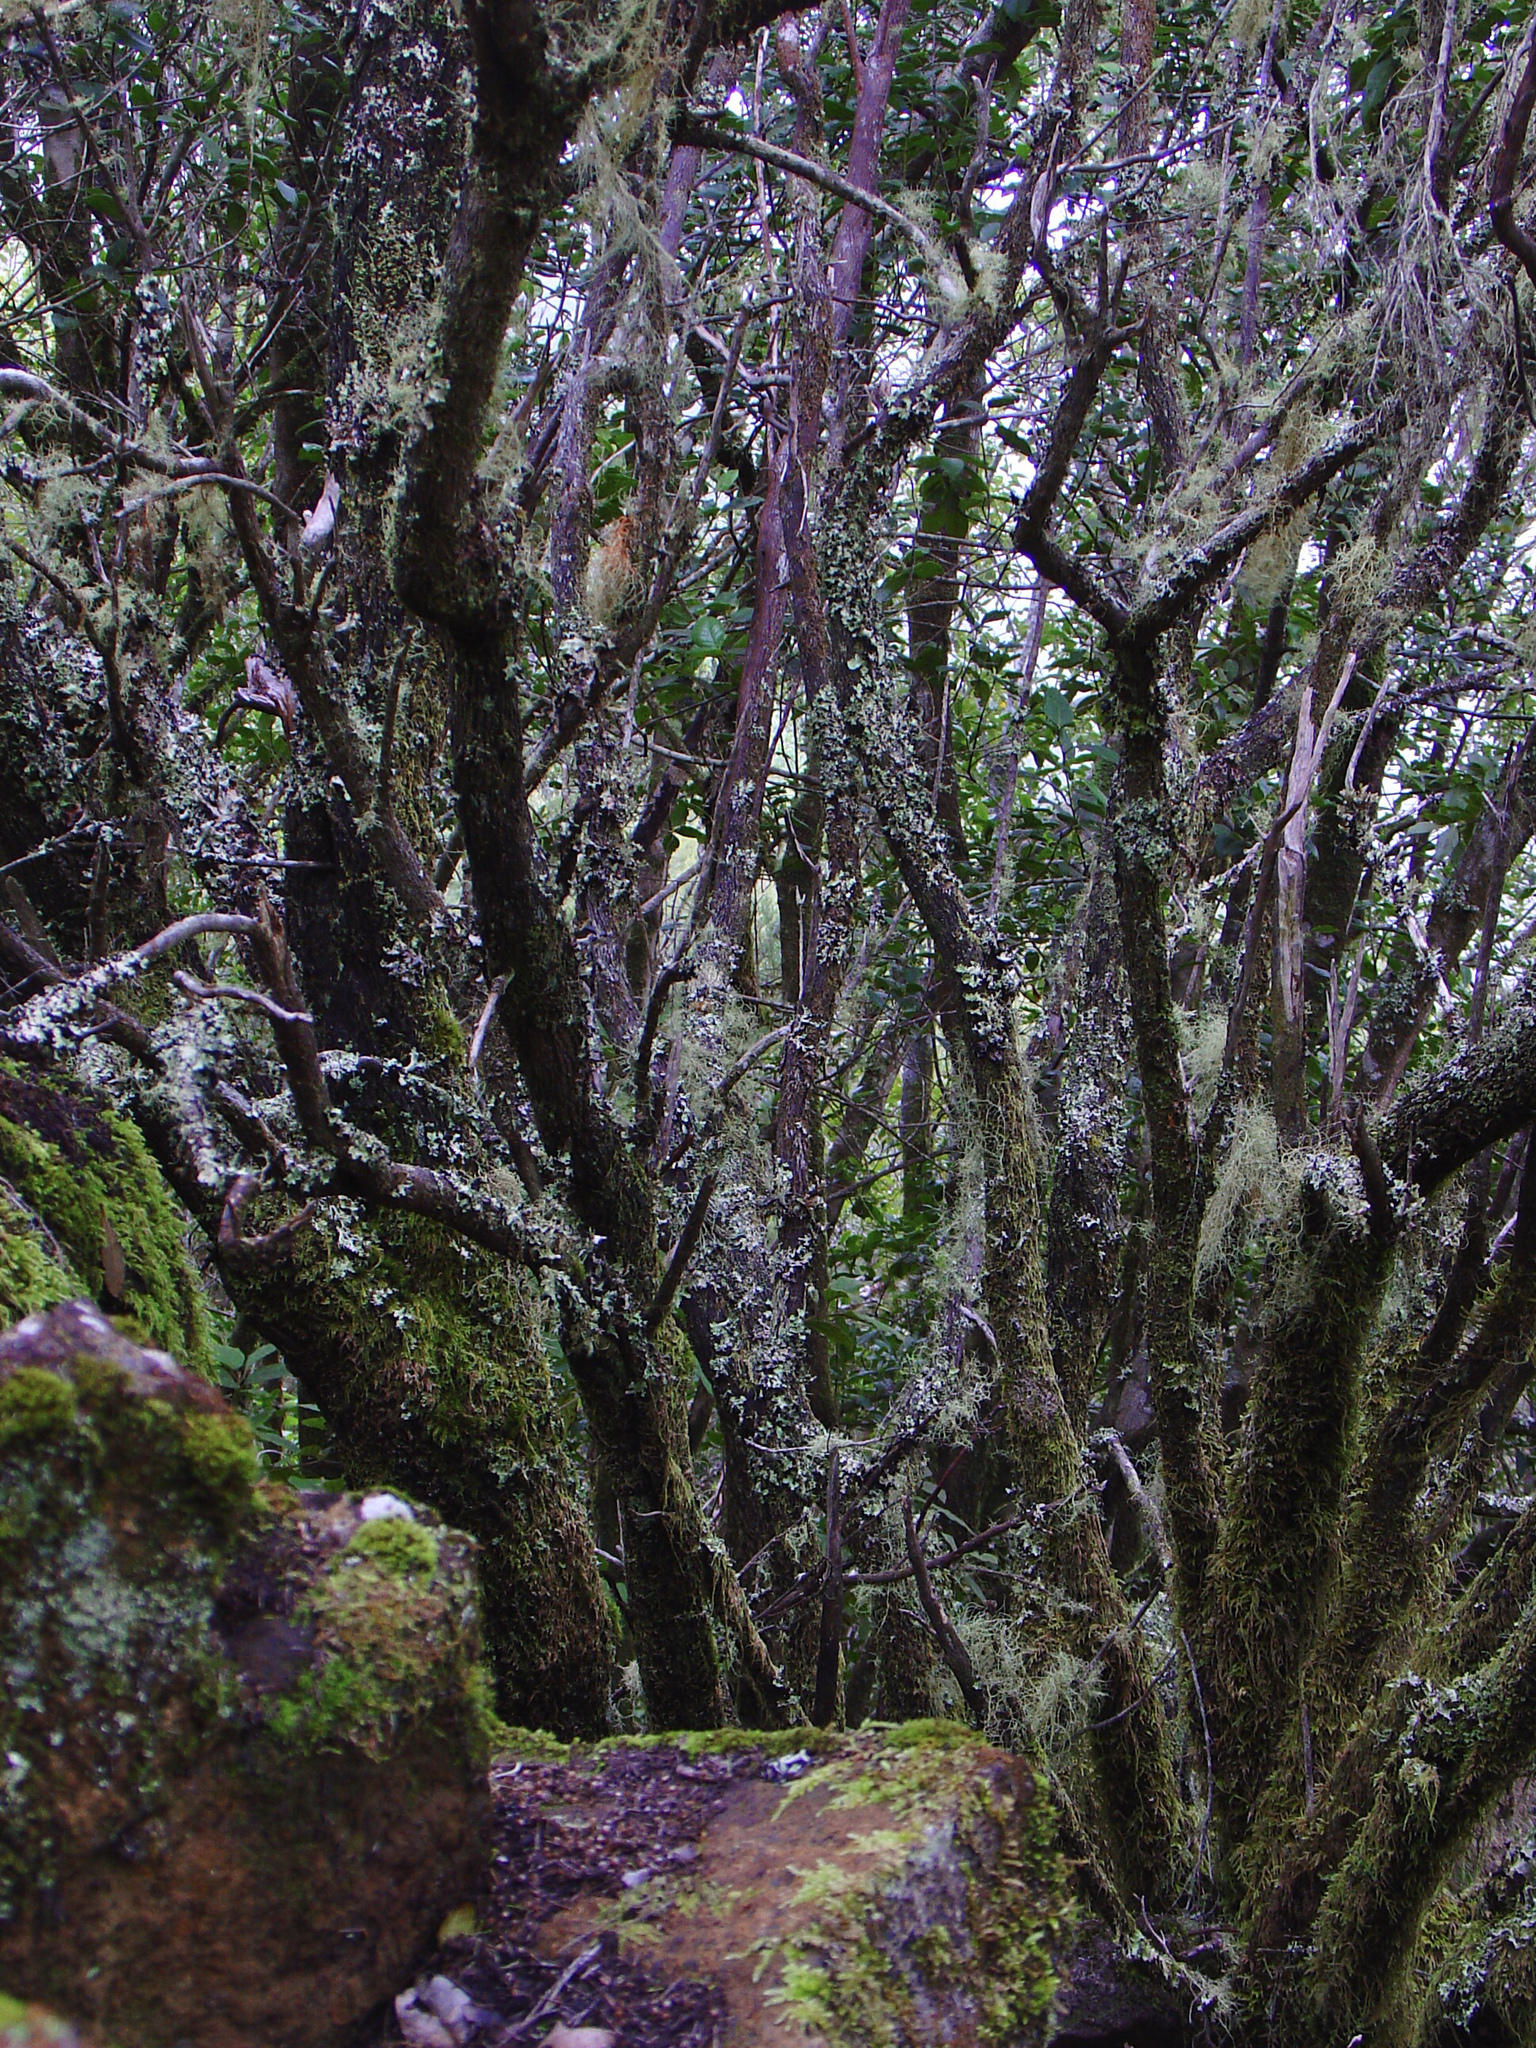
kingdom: Plantae
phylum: Tracheophyta
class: Magnoliopsida
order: Fagales
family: Myricaceae
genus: Morella
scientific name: Morella faya
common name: Firetree
